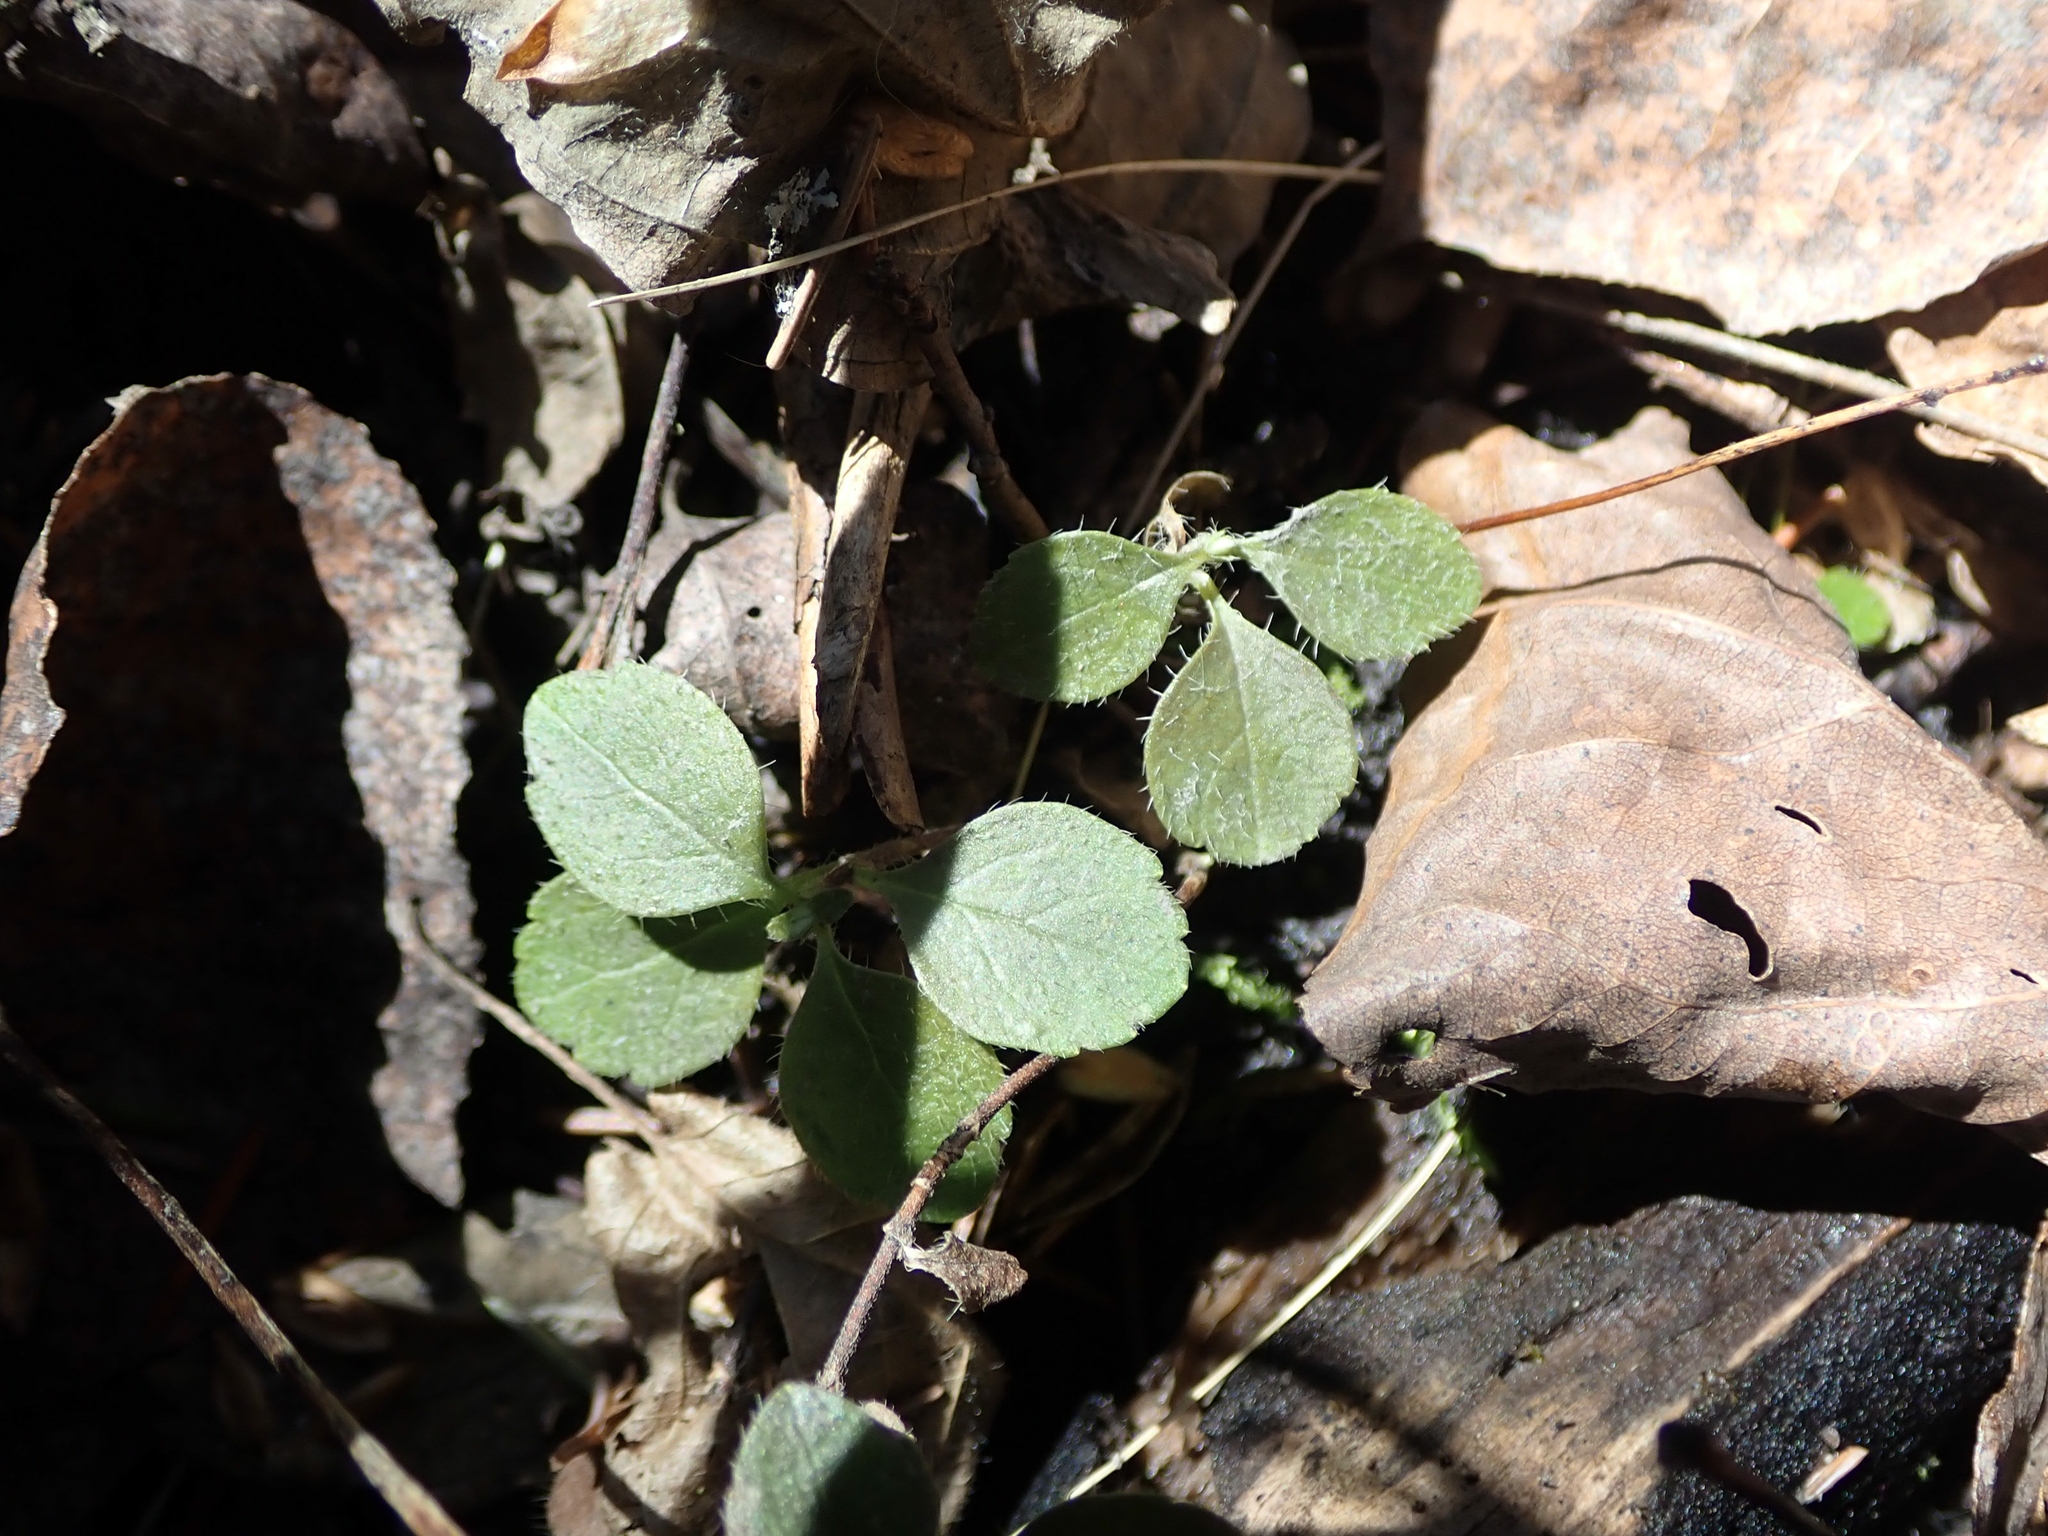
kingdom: Plantae
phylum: Tracheophyta
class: Magnoliopsida
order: Dipsacales
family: Caprifoliaceae
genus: Linnaea
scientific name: Linnaea borealis
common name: Twinflower
